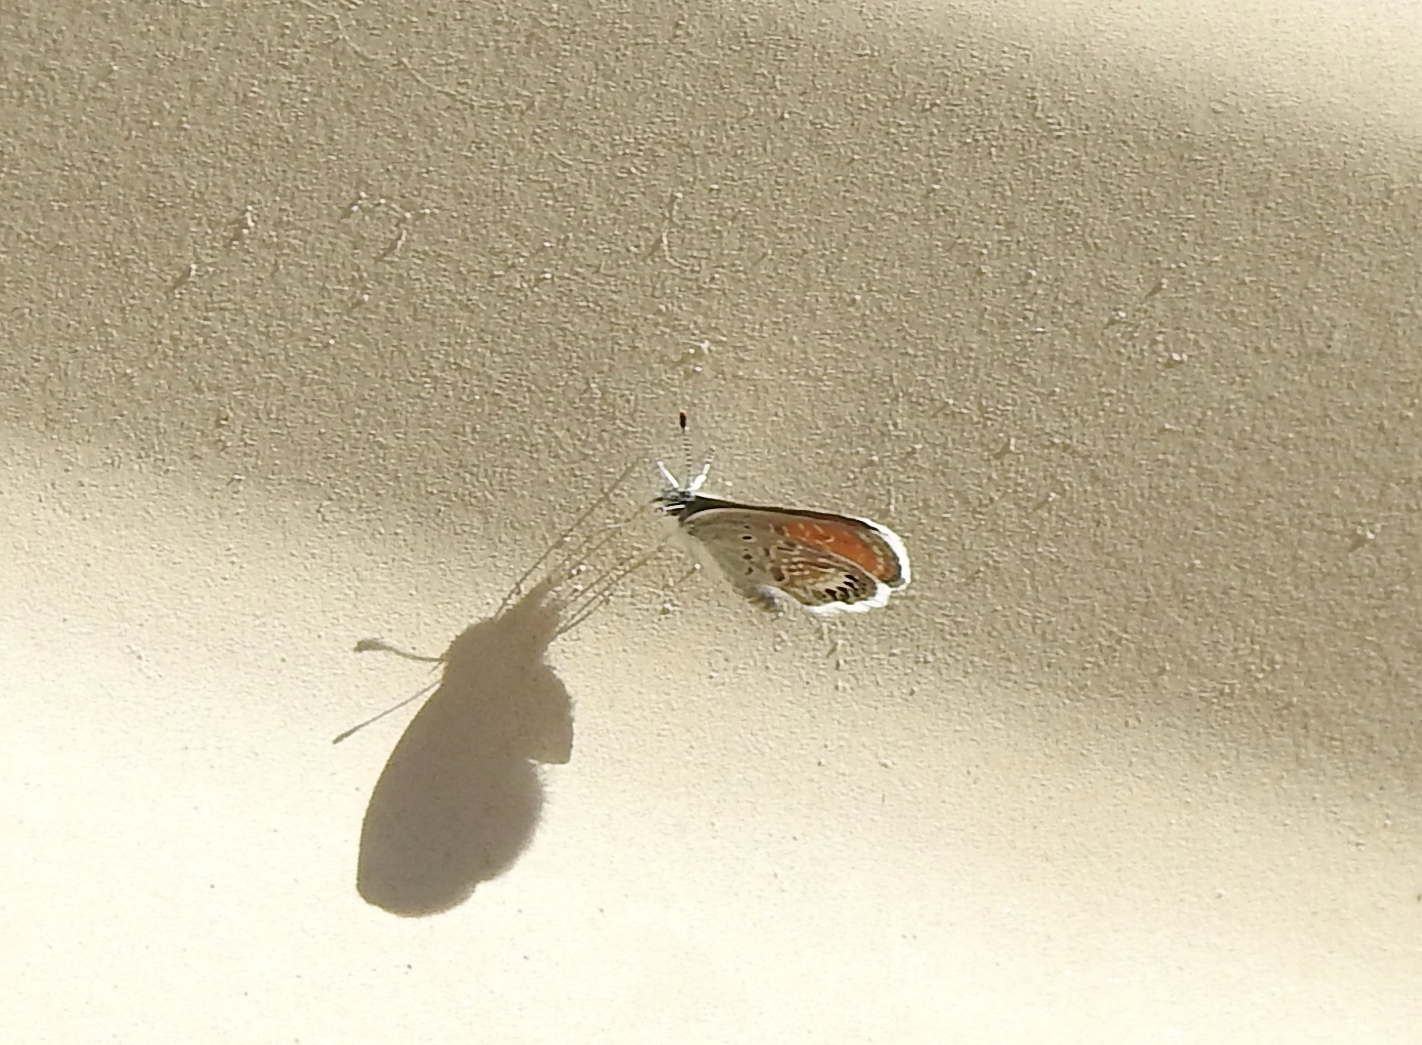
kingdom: Animalia
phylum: Arthropoda
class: Insecta
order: Lepidoptera
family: Lycaenidae
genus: Brephidium
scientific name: Brephidium exilis
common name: Pygmy blue
